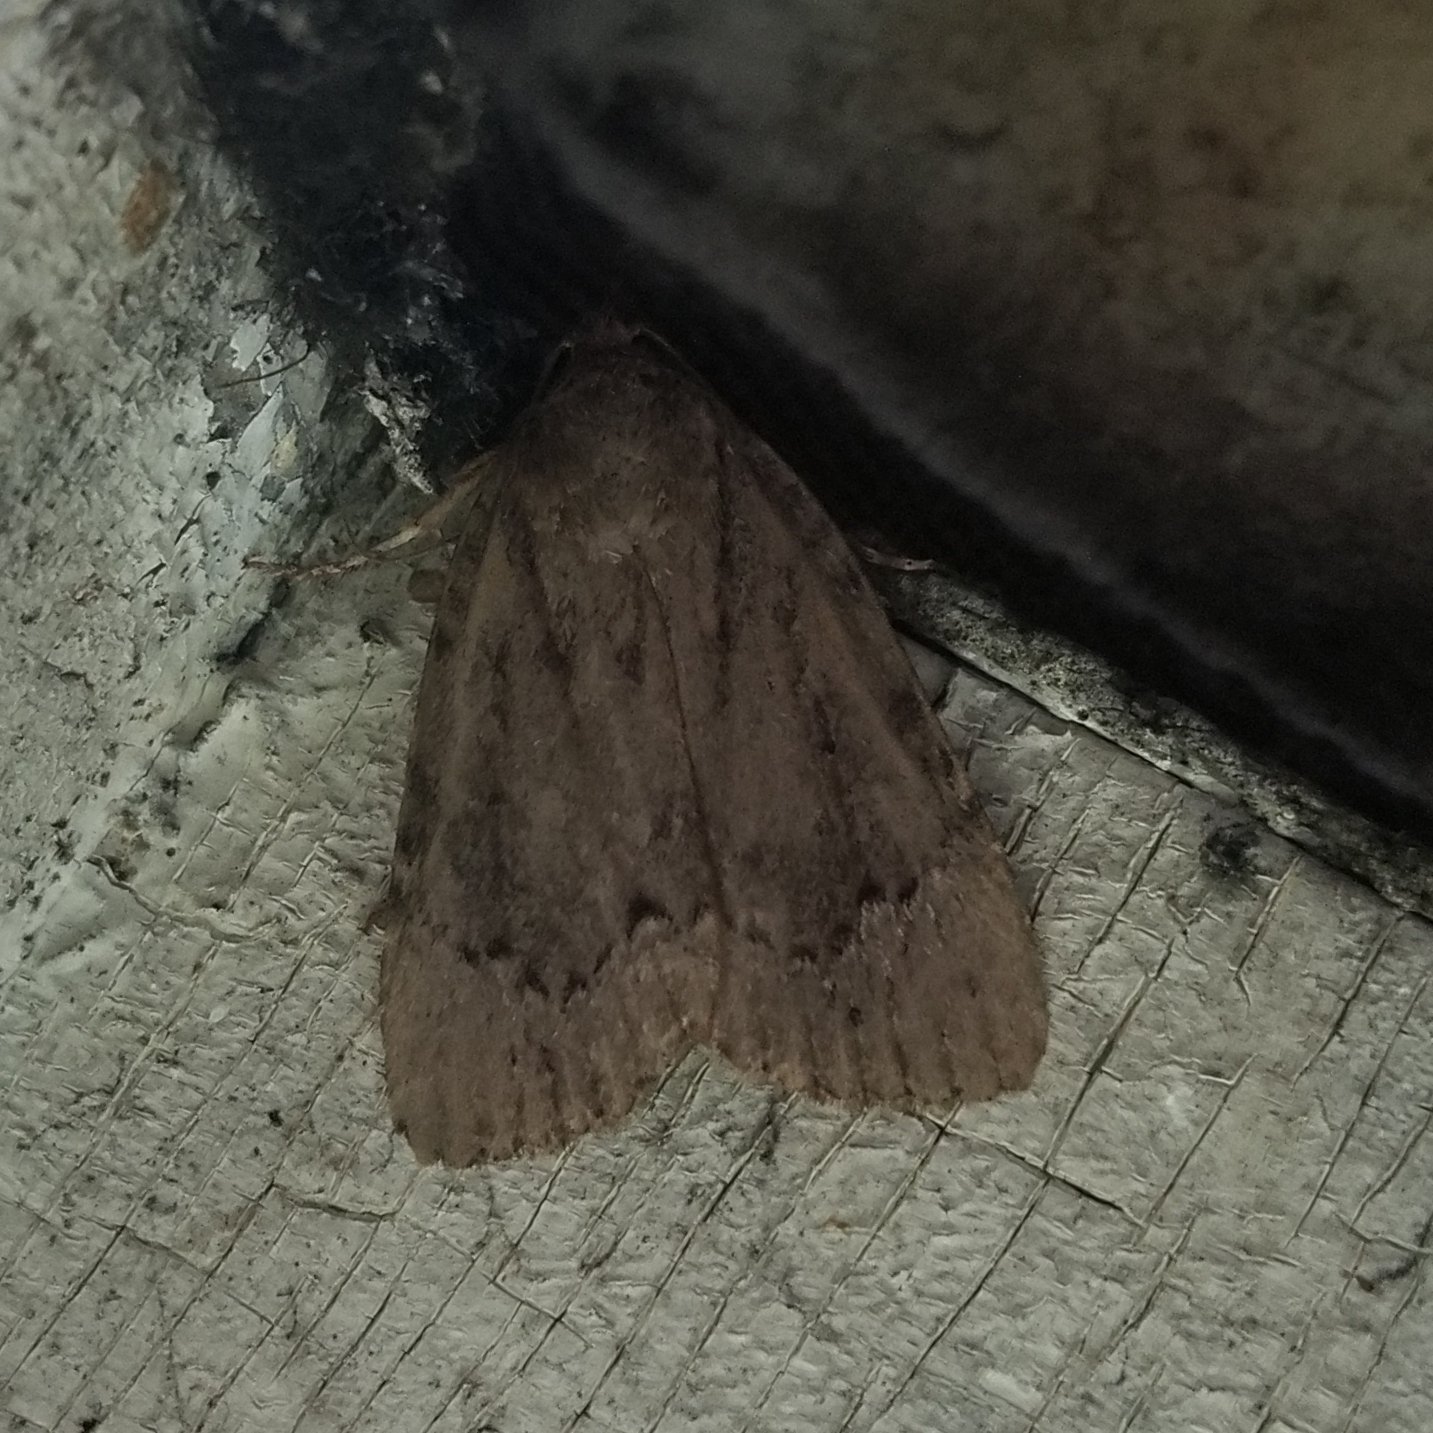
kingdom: Animalia
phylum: Arthropoda
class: Insecta
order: Lepidoptera
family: Noctuidae
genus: Amphipyra
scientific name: Amphipyra pyramidoides
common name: American copper underwing
